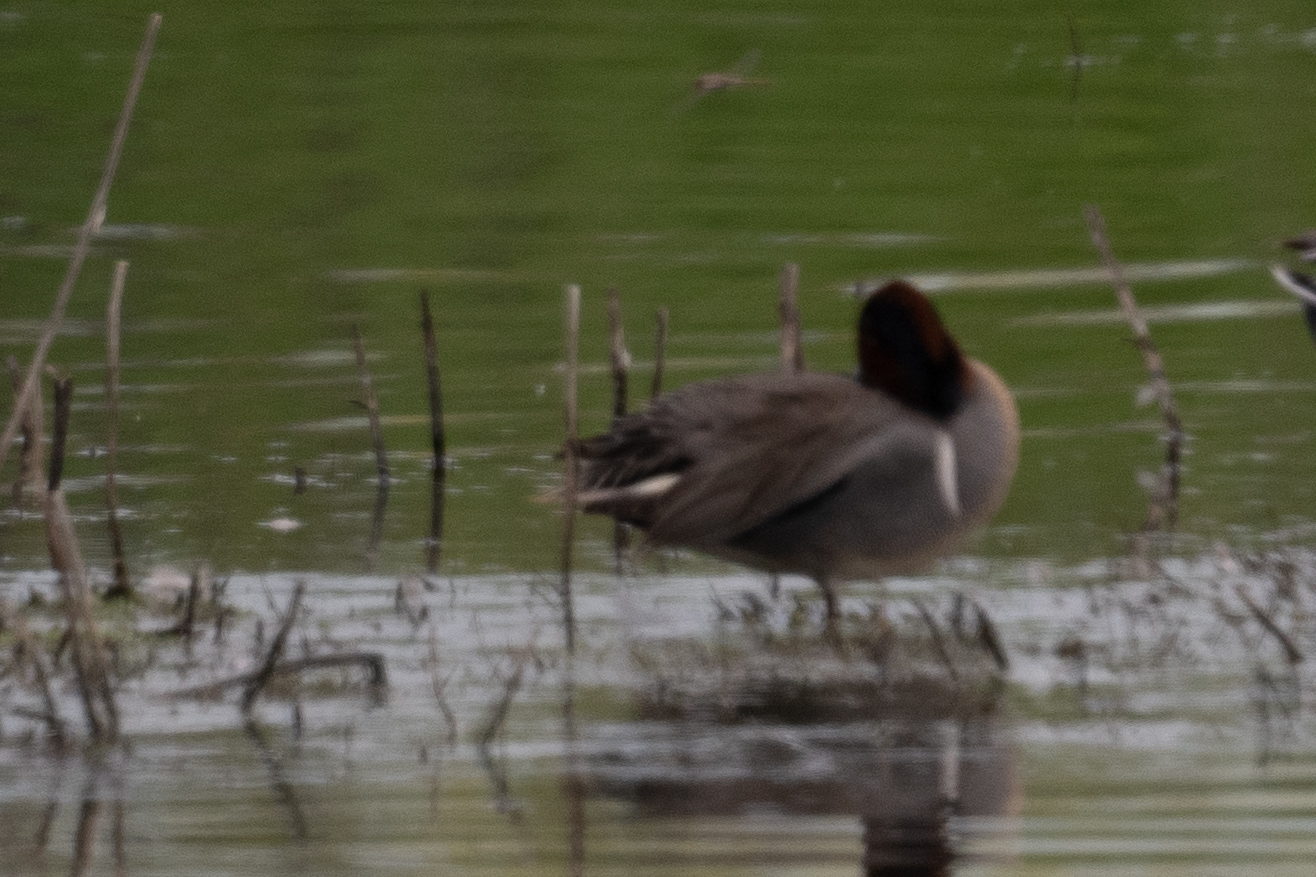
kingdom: Animalia
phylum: Chordata
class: Aves
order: Anseriformes
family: Anatidae
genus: Anas
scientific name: Anas crecca
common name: Eurasian teal
